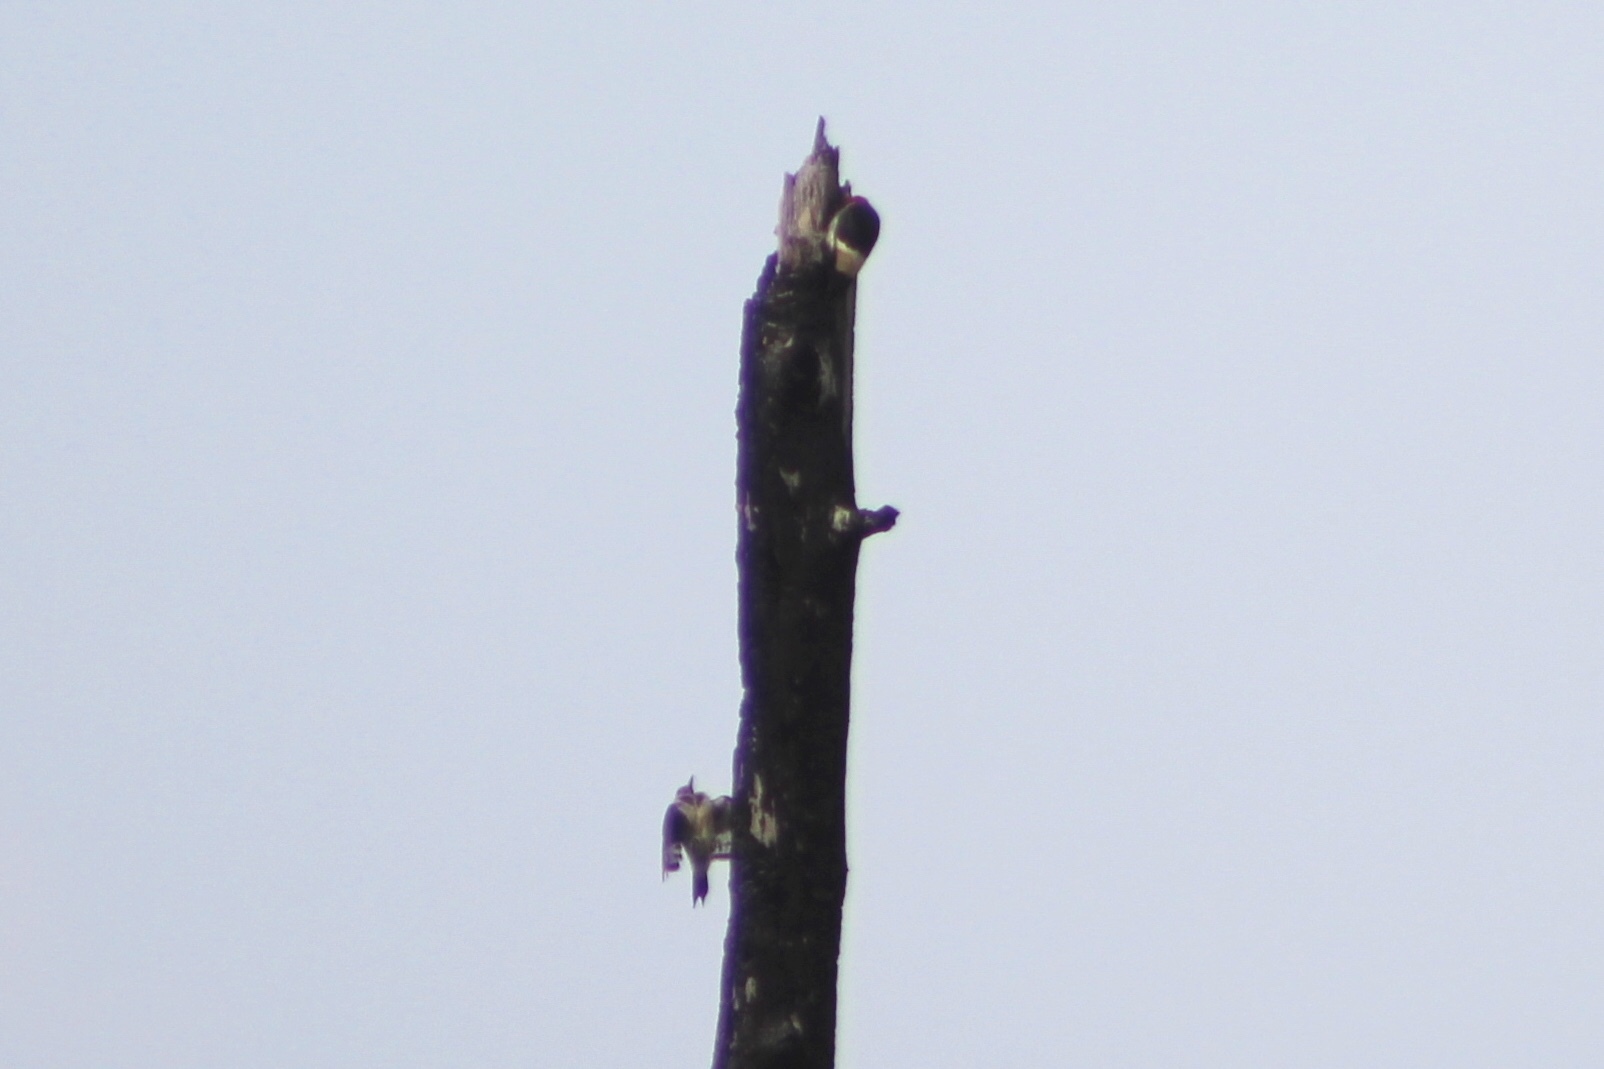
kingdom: Animalia
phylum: Chordata
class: Aves
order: Piciformes
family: Picidae
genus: Melanerpes
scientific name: Melanerpes erythrocephalus
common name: Red-headed woodpecker
